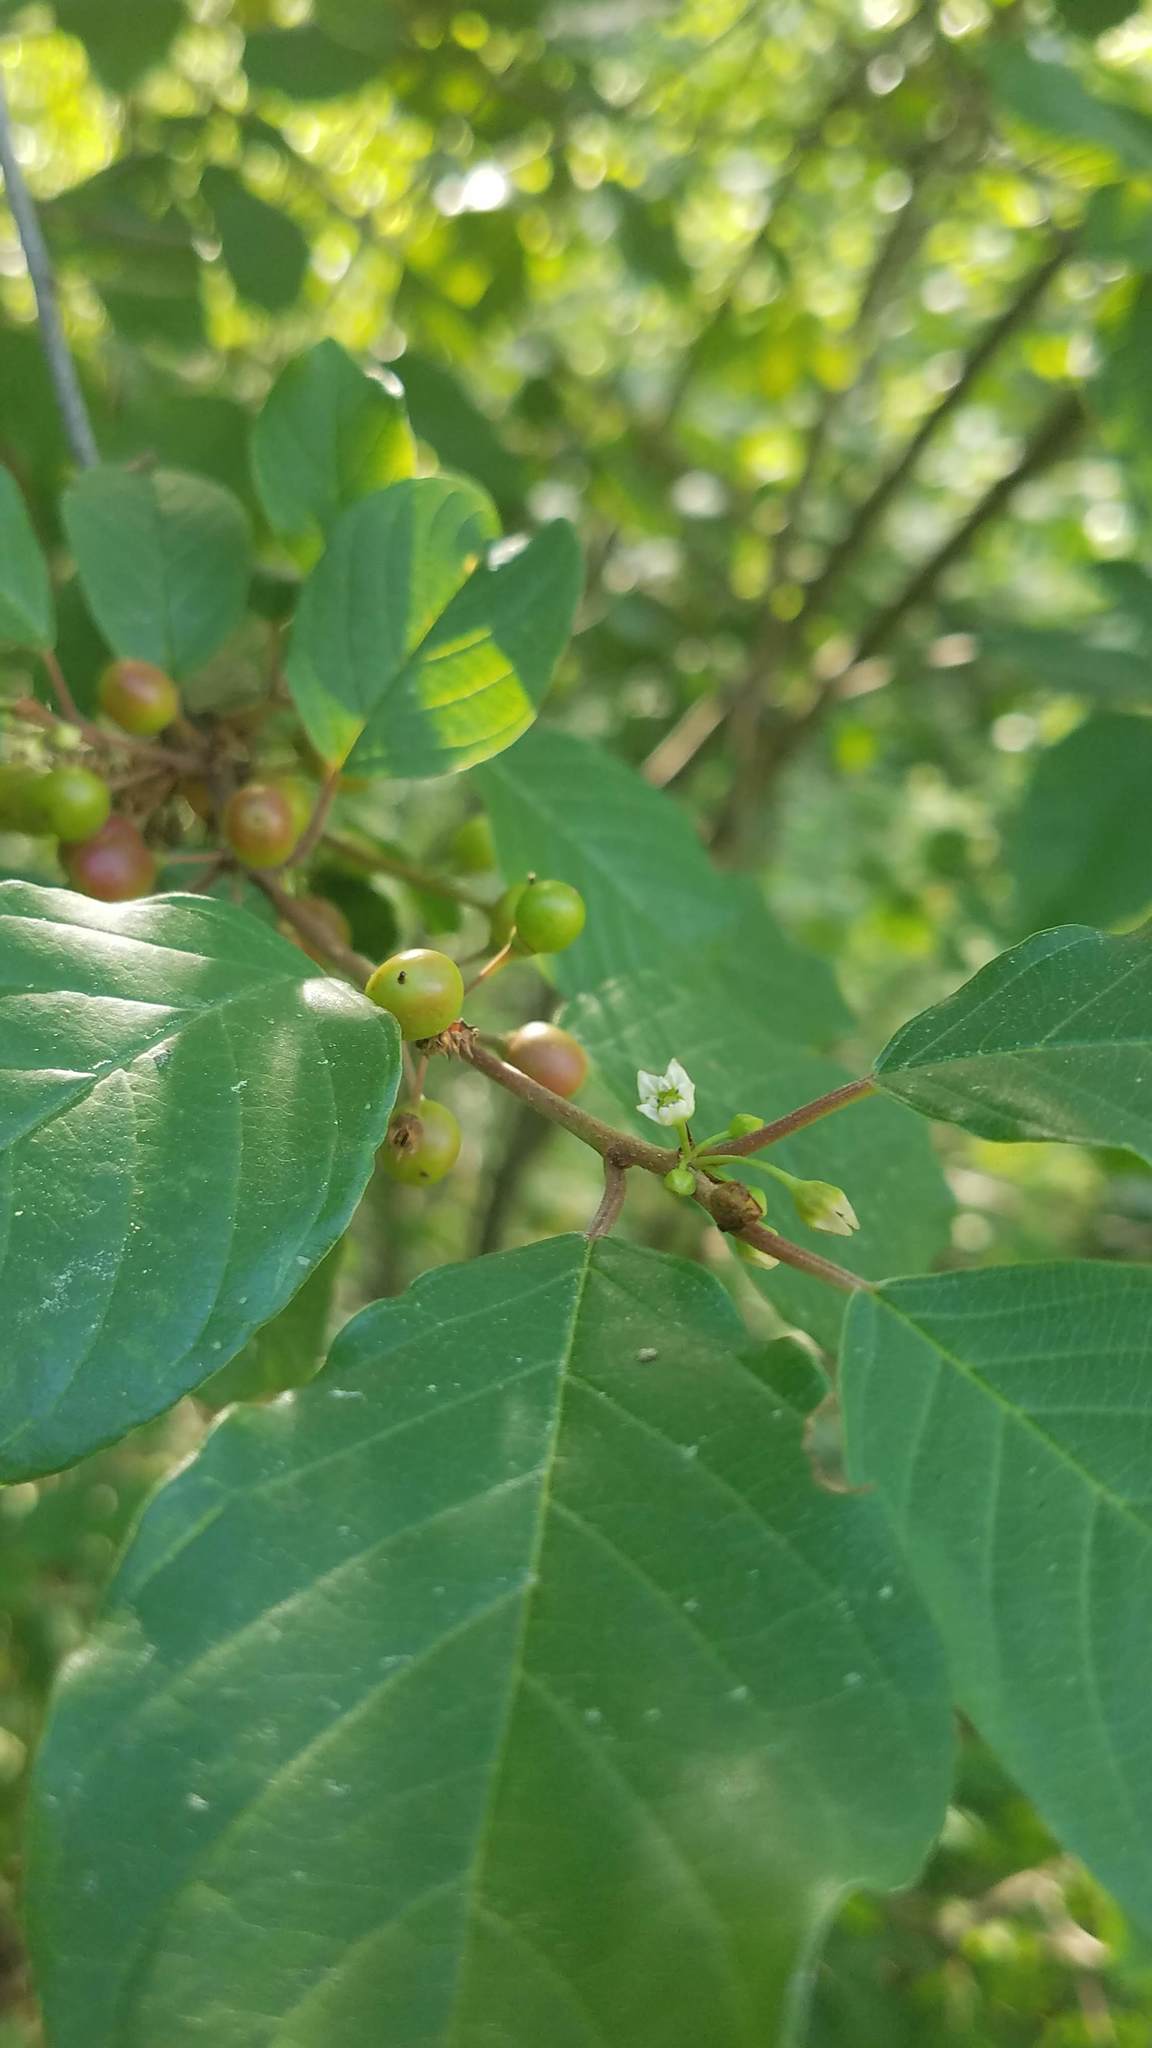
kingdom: Plantae
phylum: Tracheophyta
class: Magnoliopsida
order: Rosales
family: Rhamnaceae
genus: Frangula
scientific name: Frangula alnus
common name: Alder buckthorn
